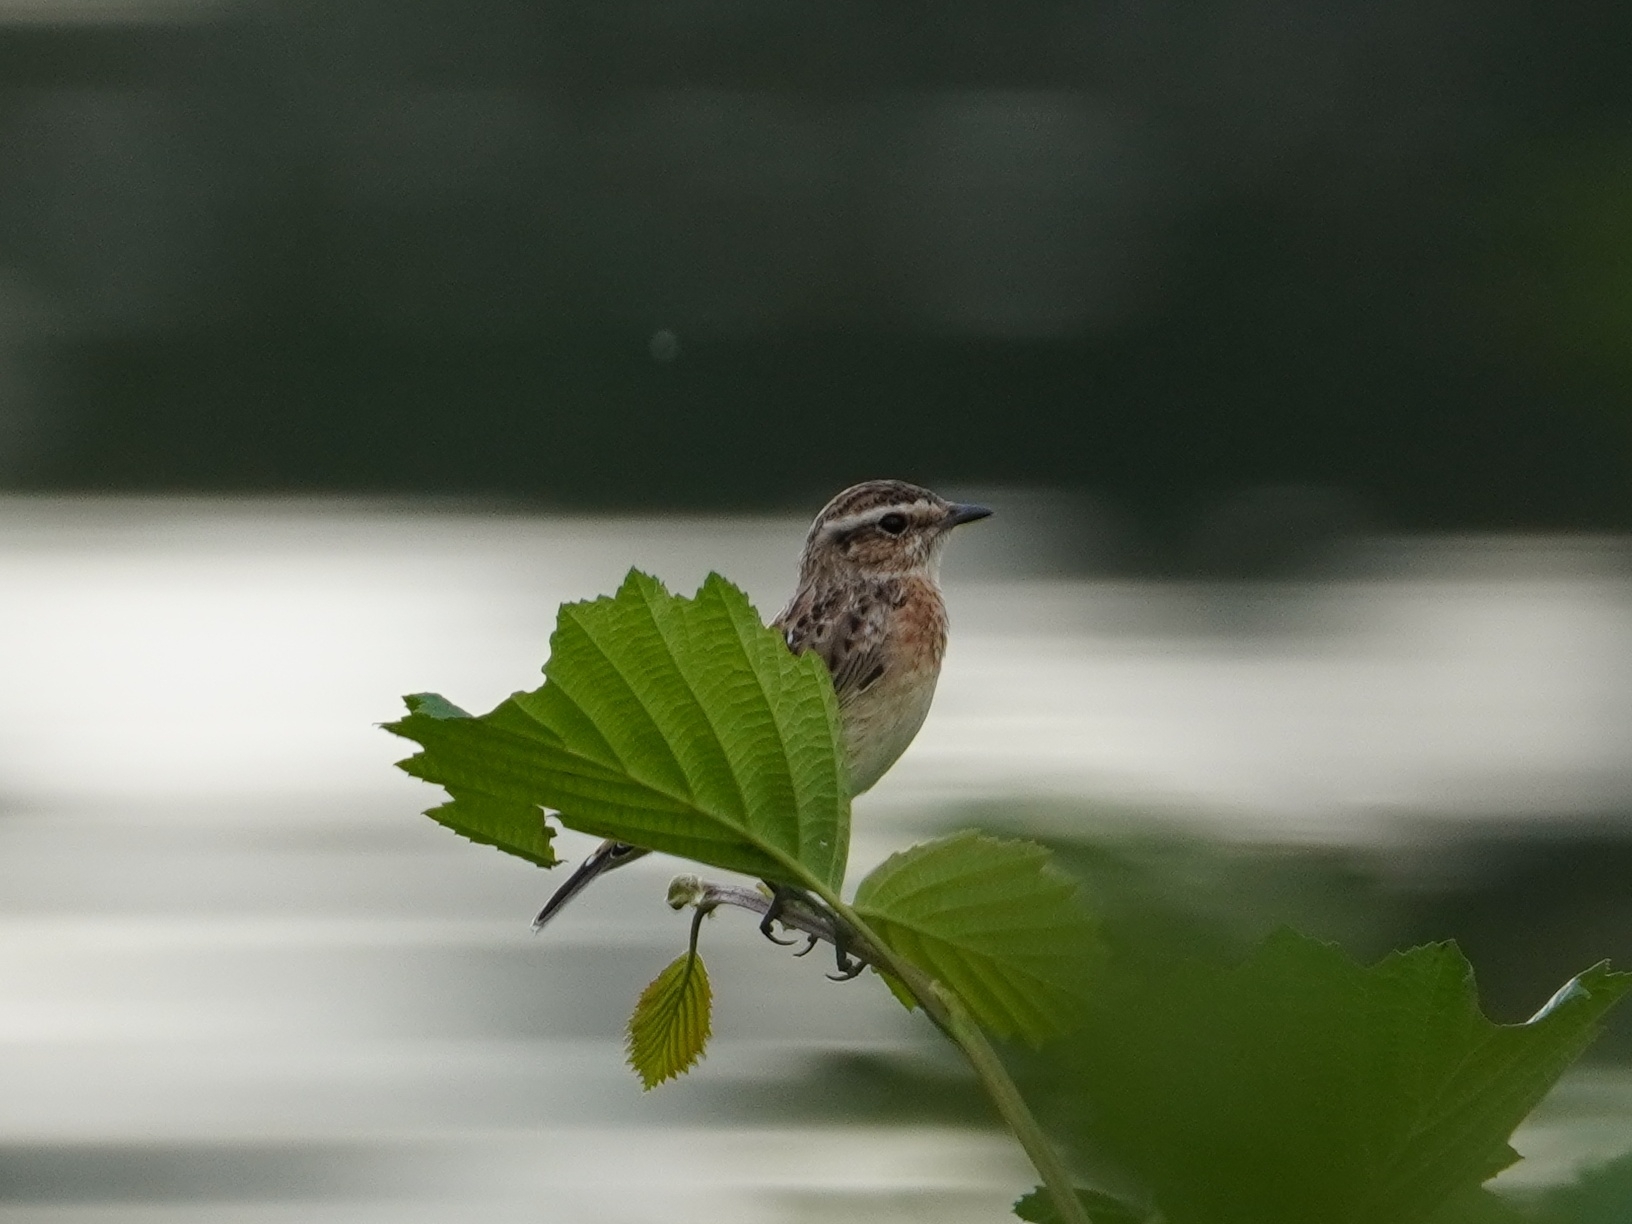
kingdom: Animalia
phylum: Chordata
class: Aves
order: Passeriformes
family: Muscicapidae
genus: Saxicola
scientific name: Saxicola rubetra
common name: Whinchat
